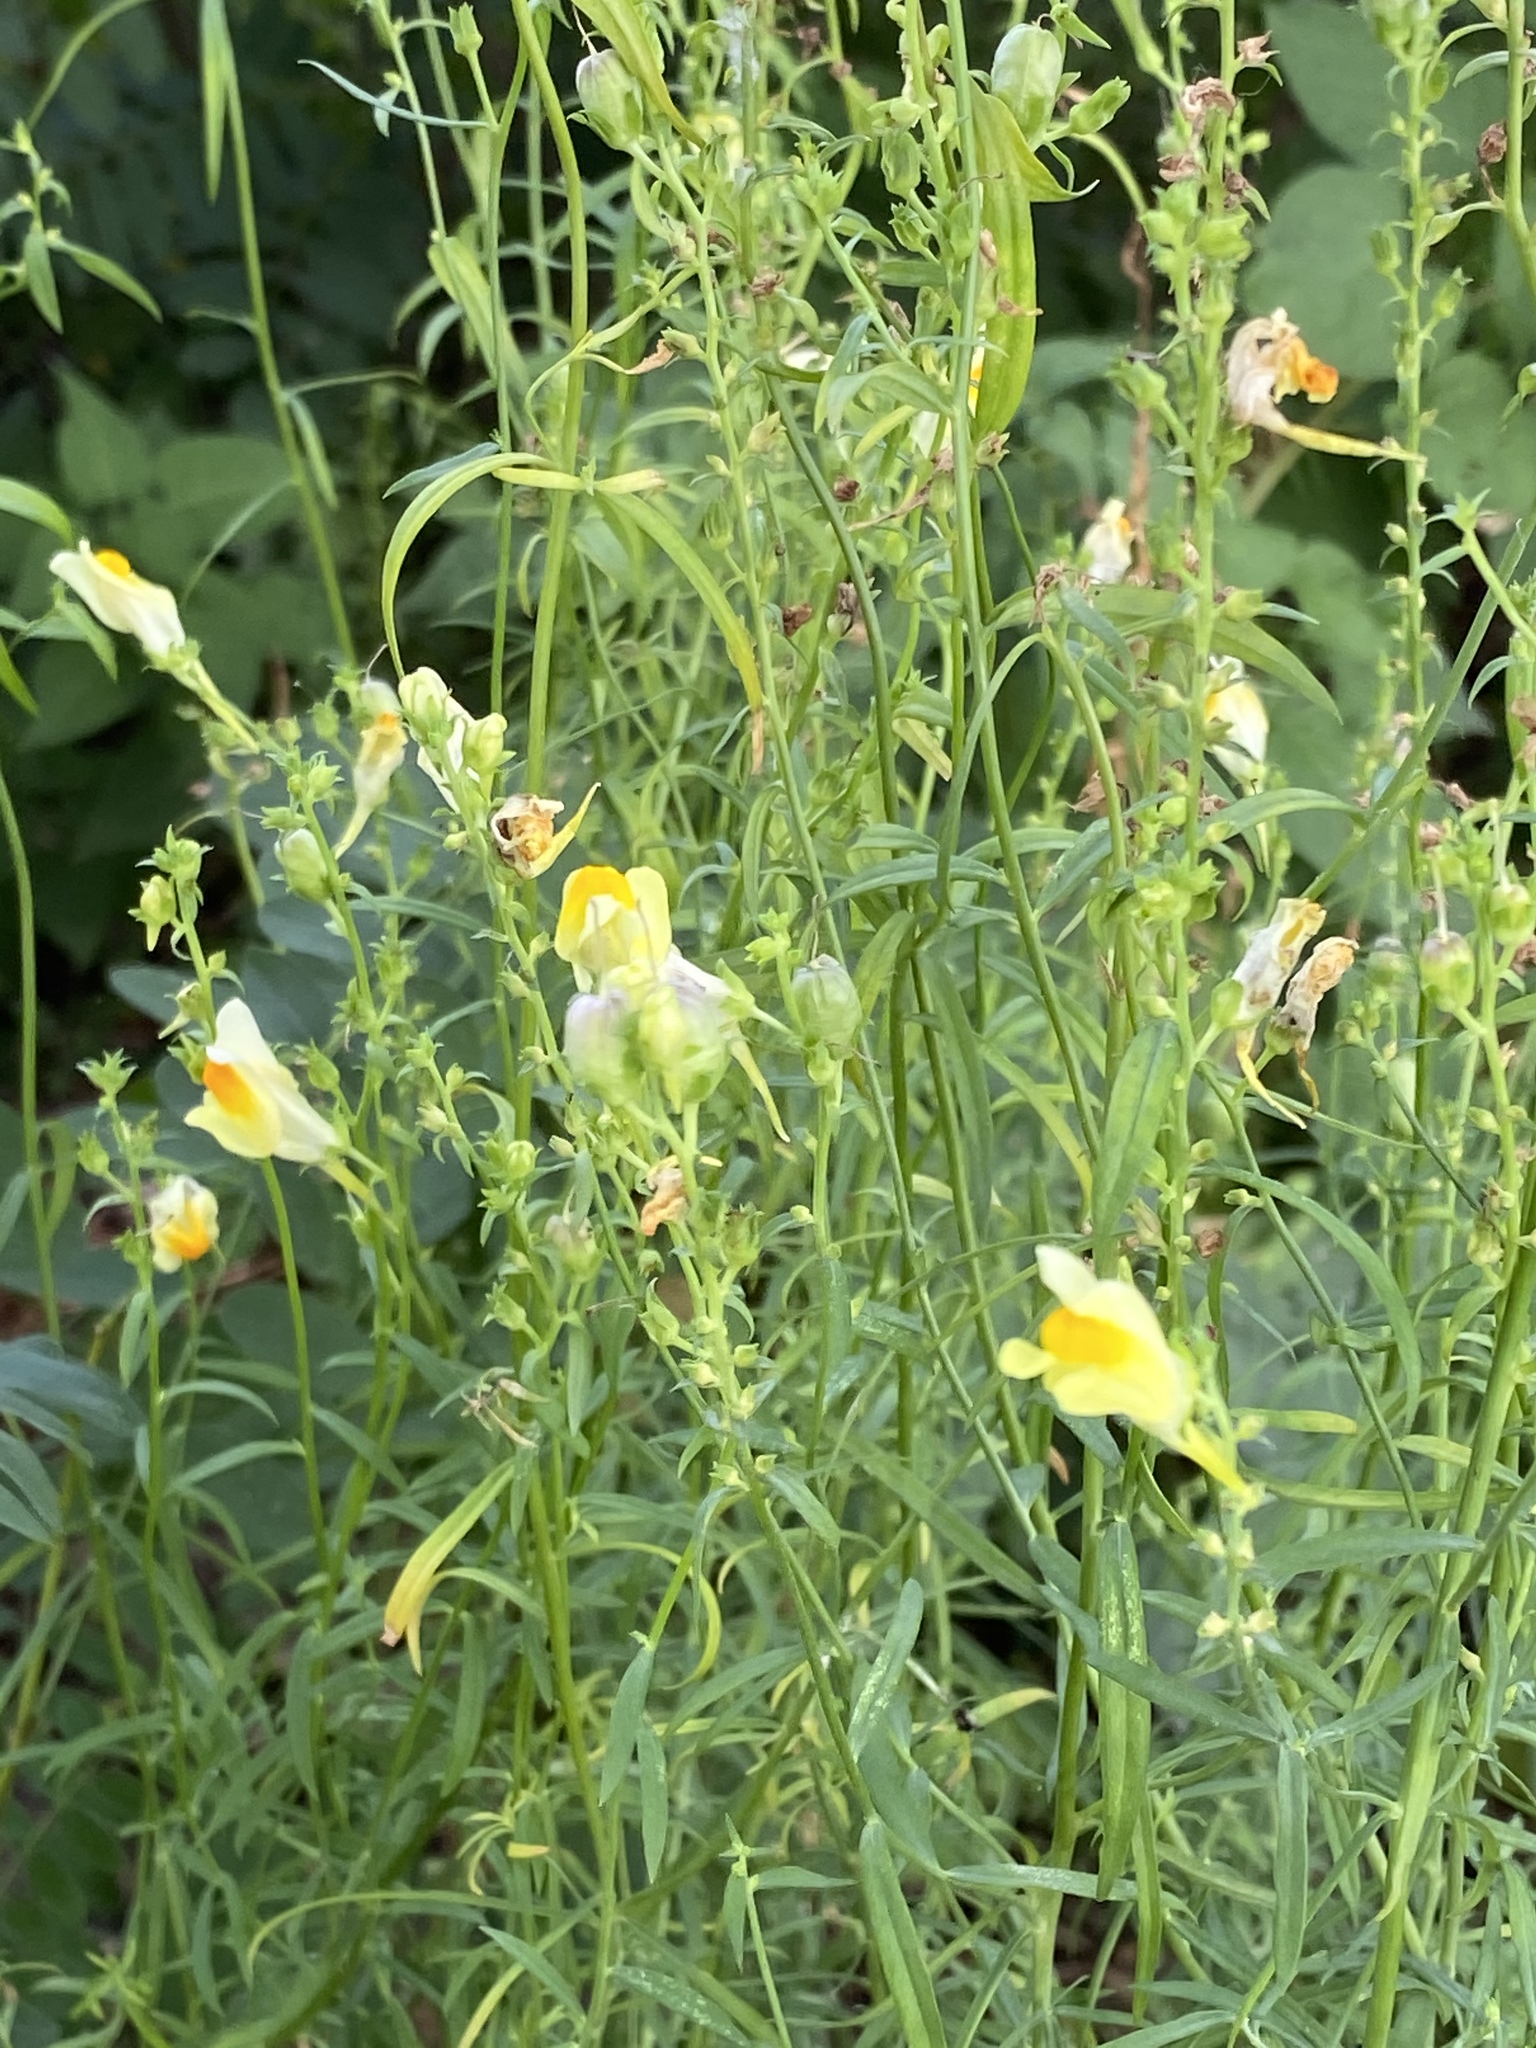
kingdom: Plantae
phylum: Tracheophyta
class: Magnoliopsida
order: Lamiales
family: Plantaginaceae
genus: Linaria
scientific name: Linaria vulgaris
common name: Butter and eggs
